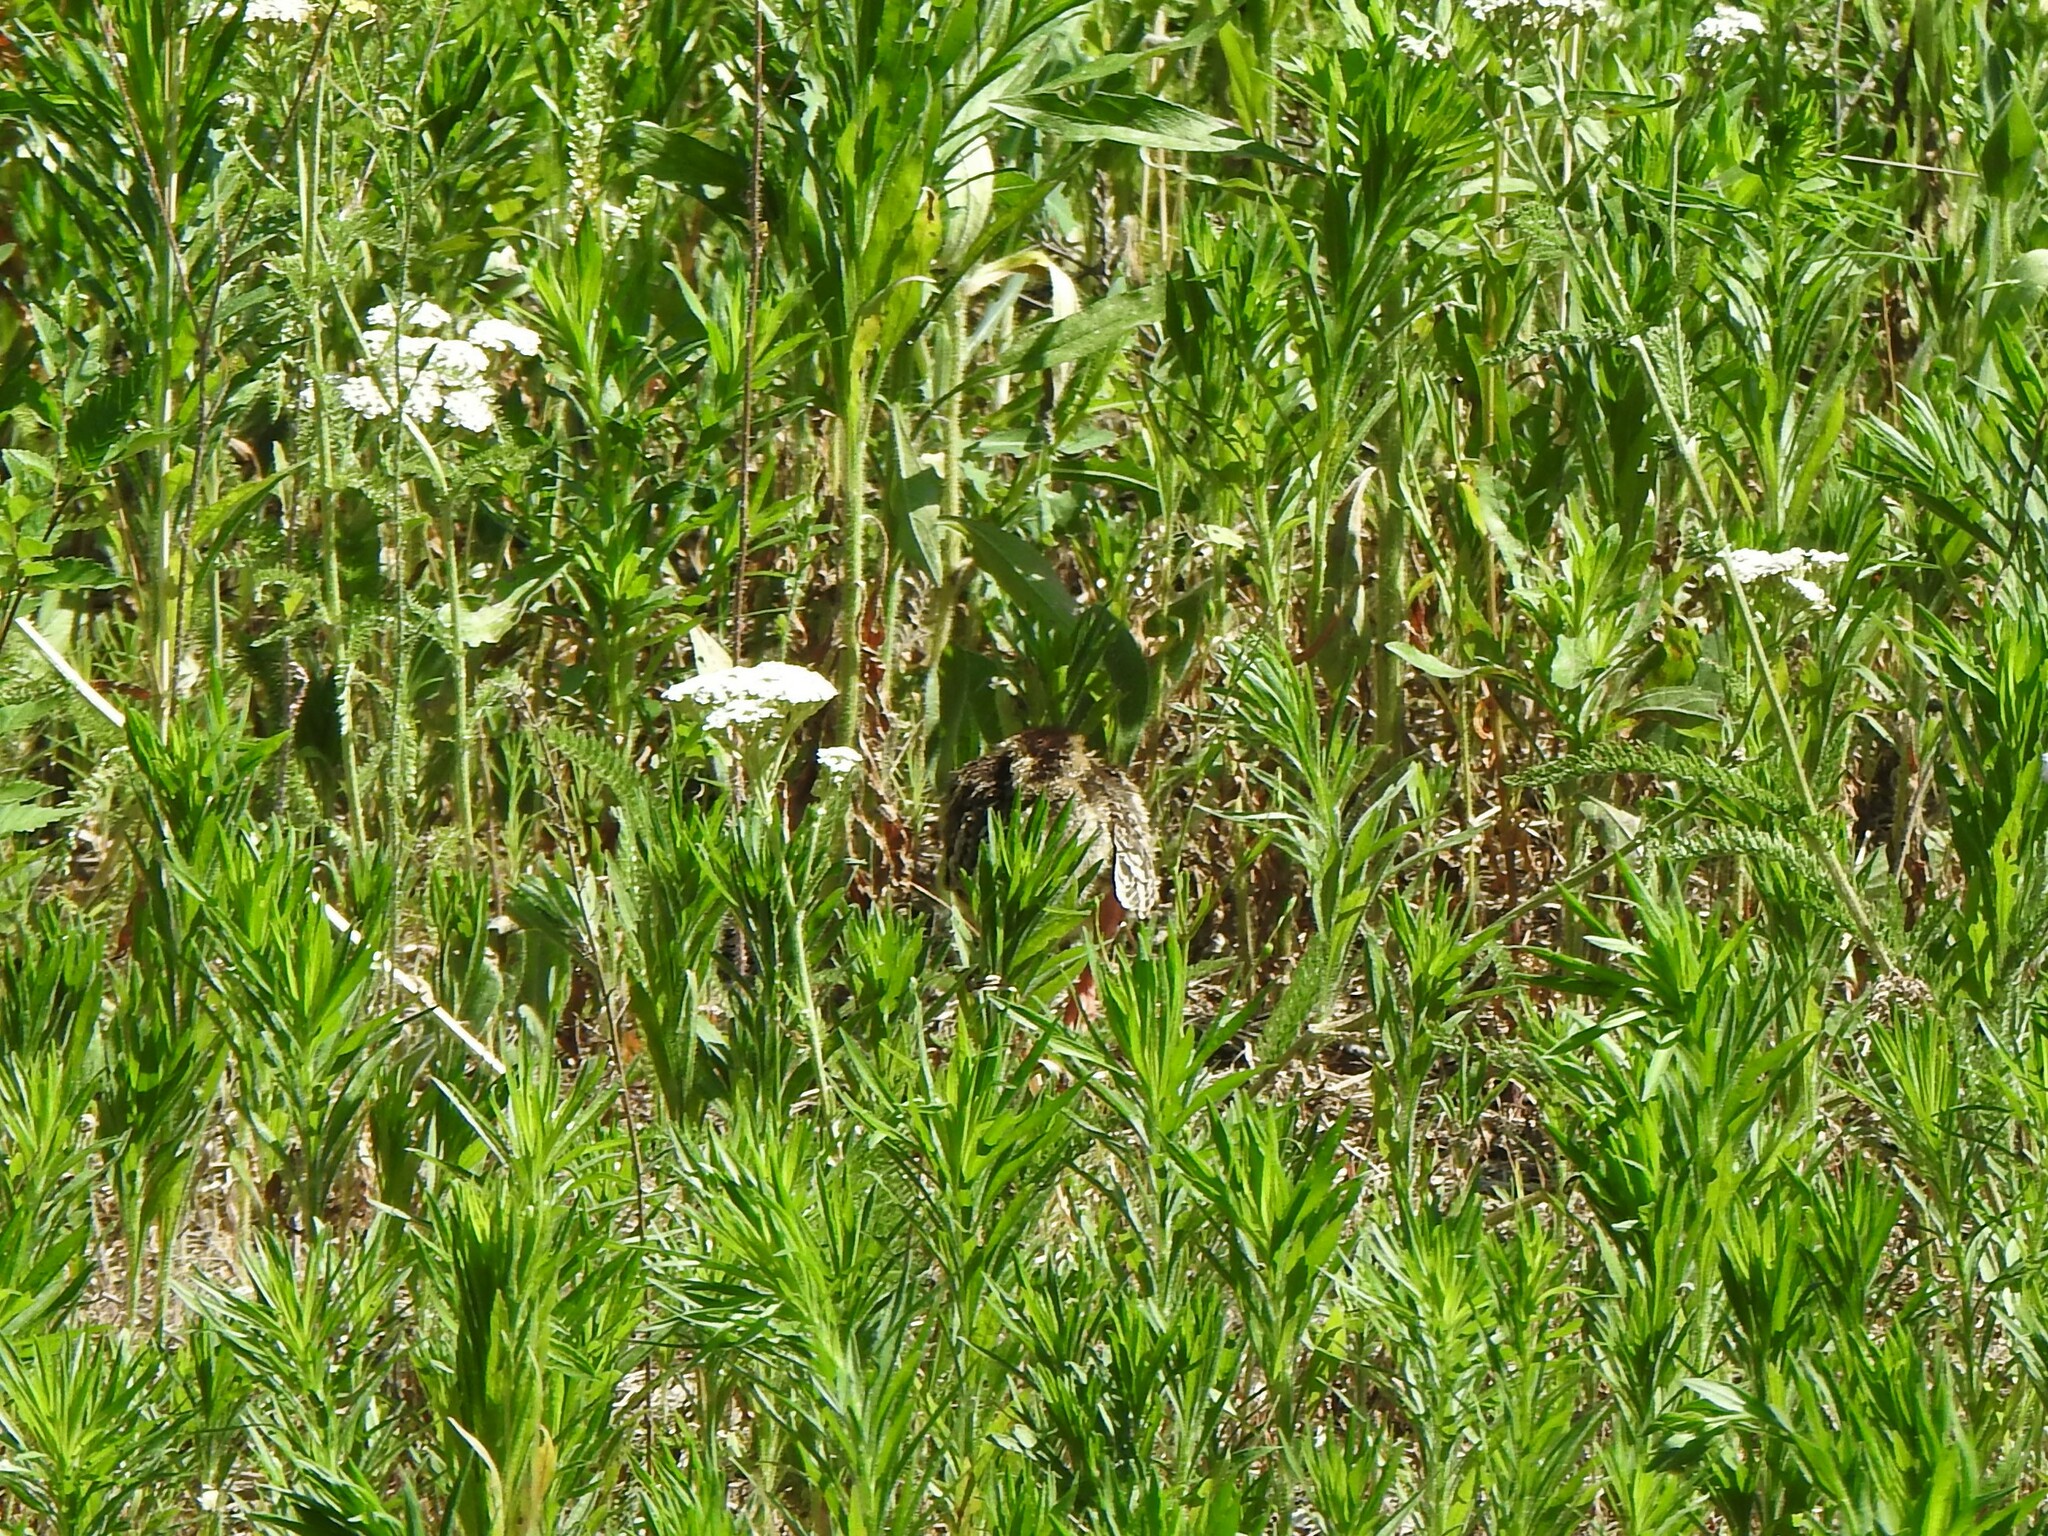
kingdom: Animalia
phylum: Chordata
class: Aves
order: Galliformes
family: Phasianidae
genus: Meleagris
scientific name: Meleagris gallopavo
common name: Wild turkey
